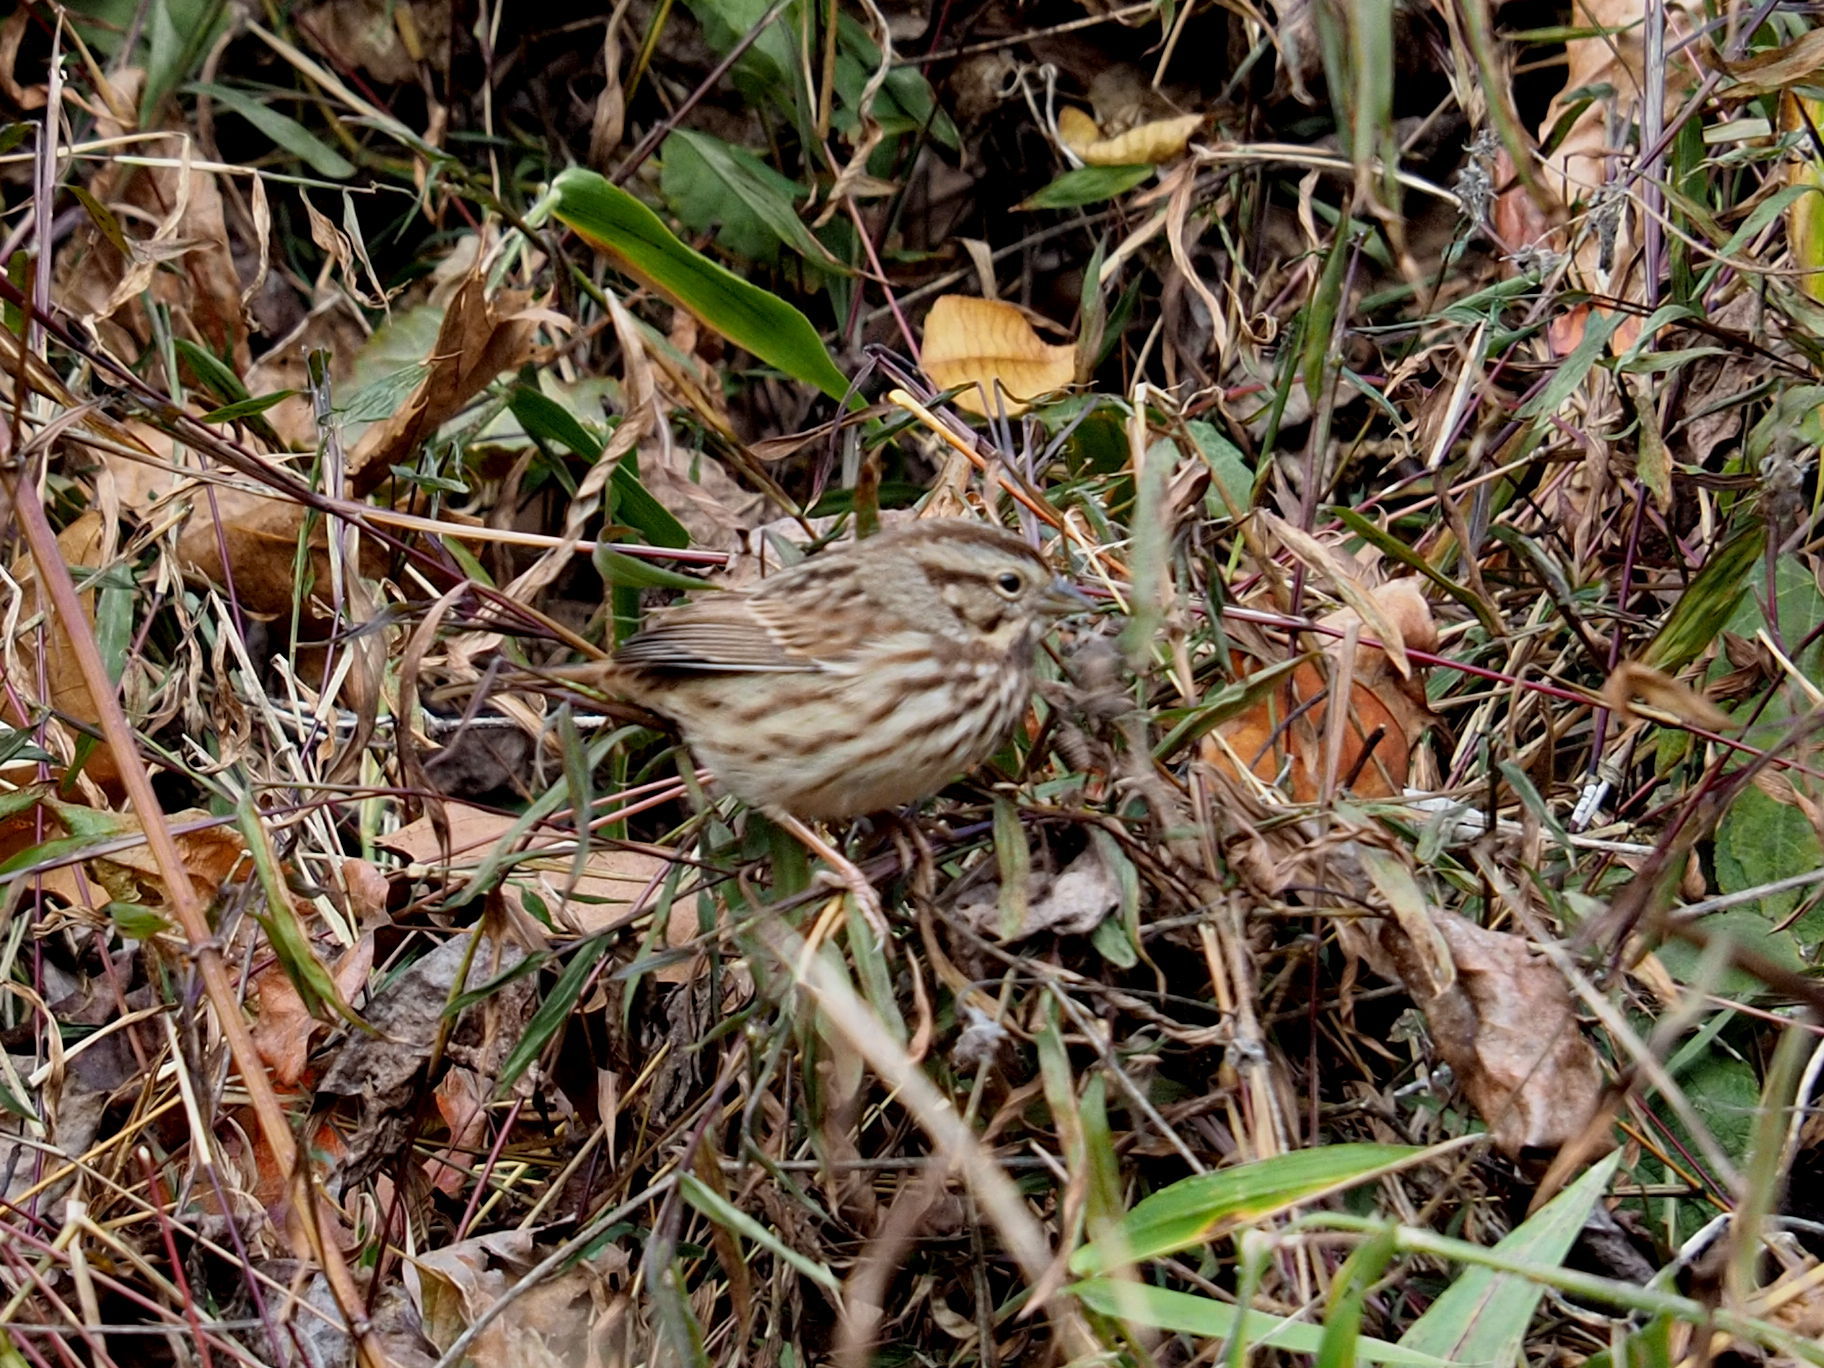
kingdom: Animalia
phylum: Chordata
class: Aves
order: Passeriformes
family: Passerellidae
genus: Melospiza
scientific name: Melospiza melodia
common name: Song sparrow
